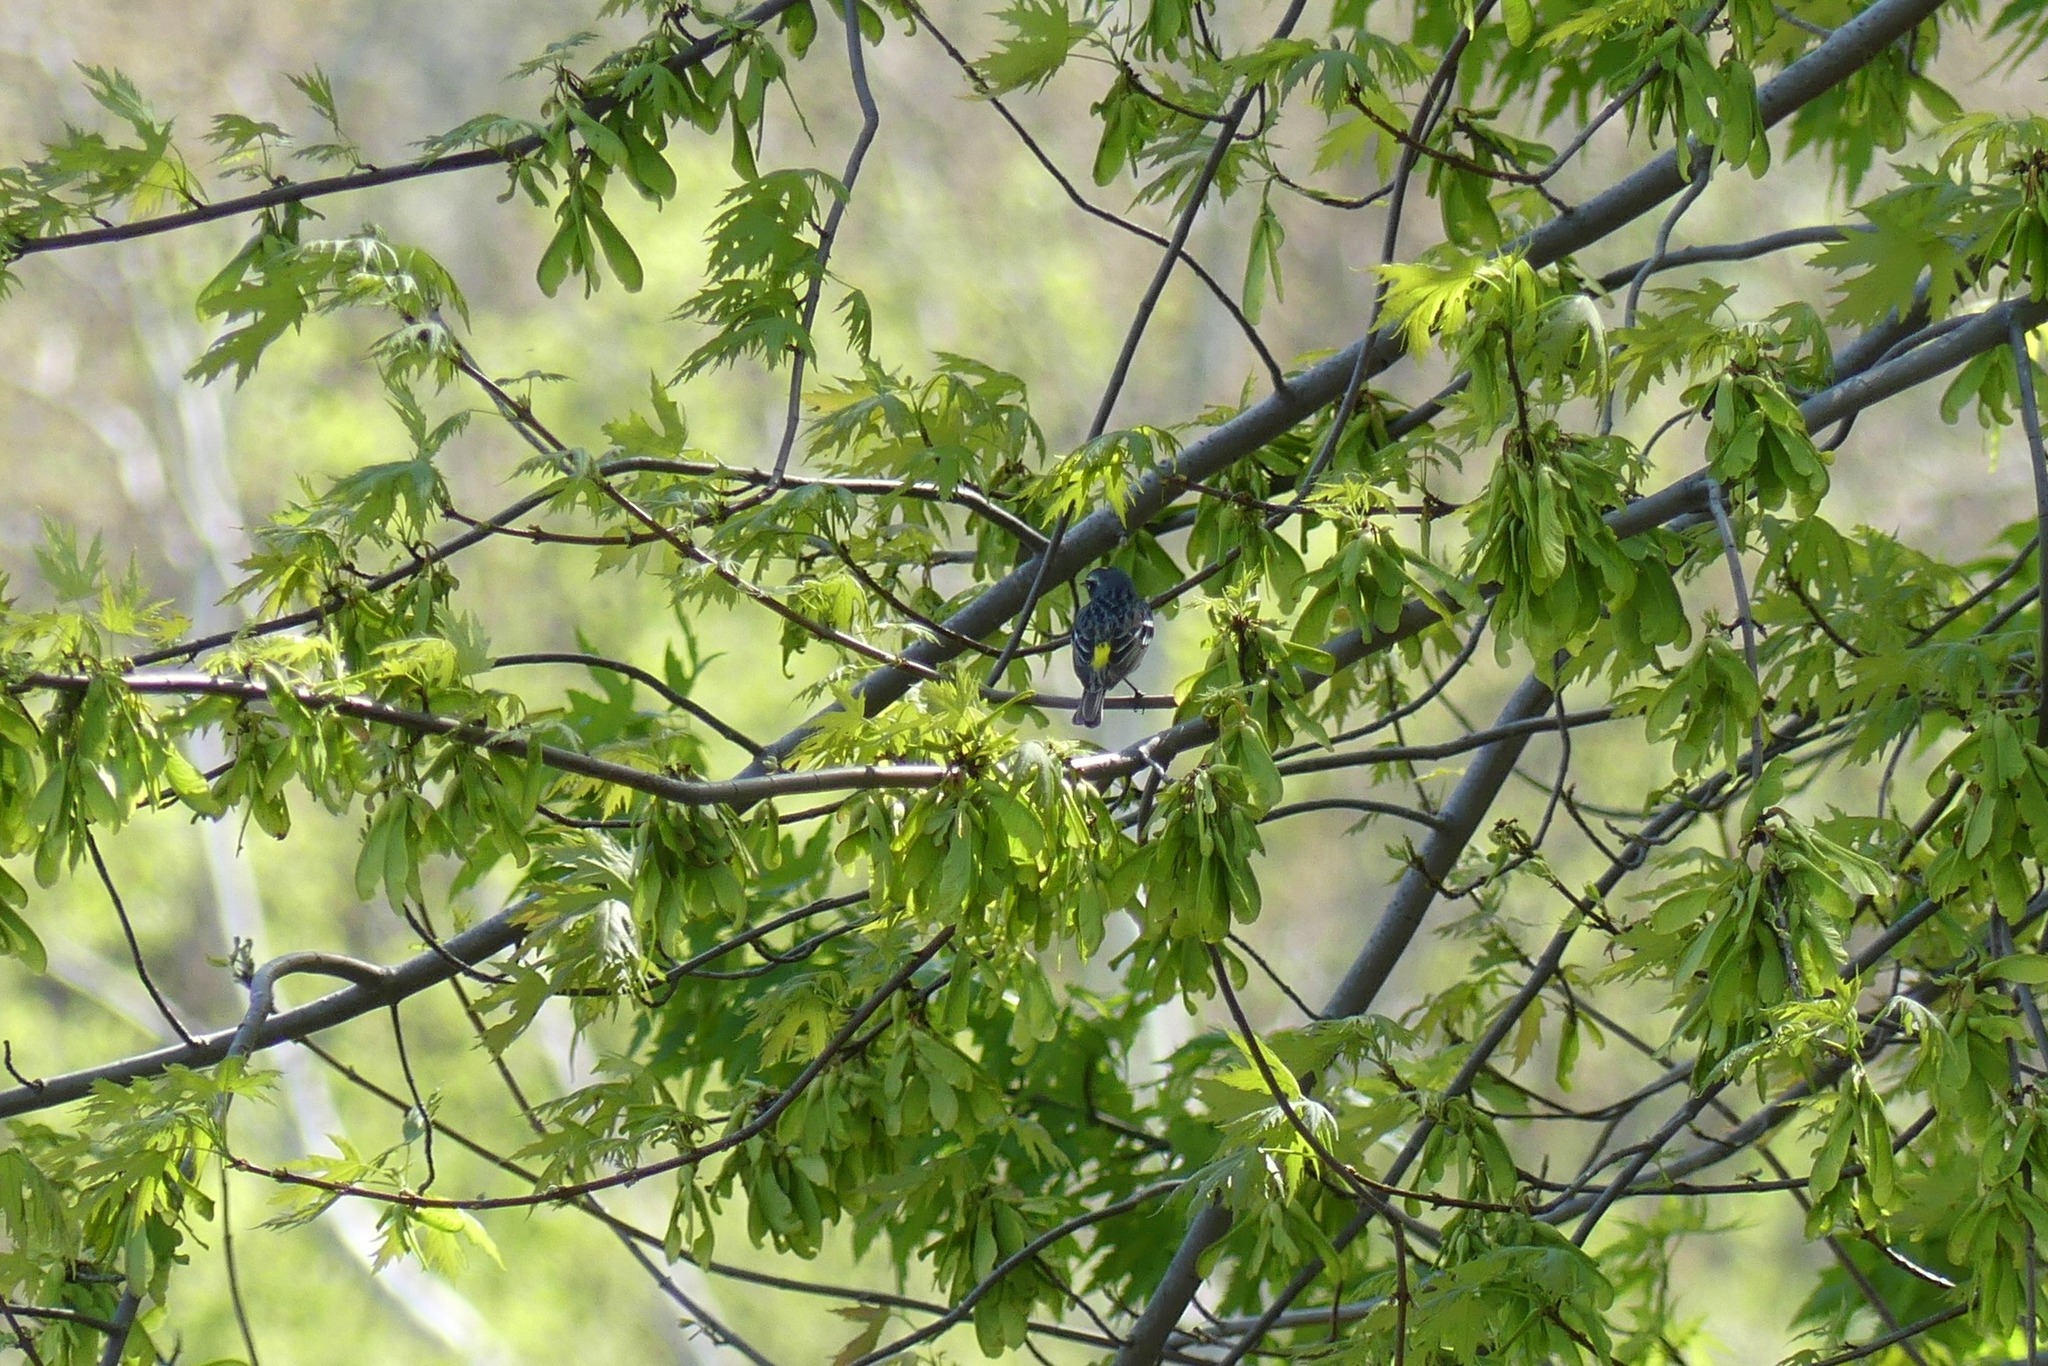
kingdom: Animalia
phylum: Chordata
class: Aves
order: Passeriformes
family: Parulidae
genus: Setophaga
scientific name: Setophaga coronata
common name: Myrtle warbler
